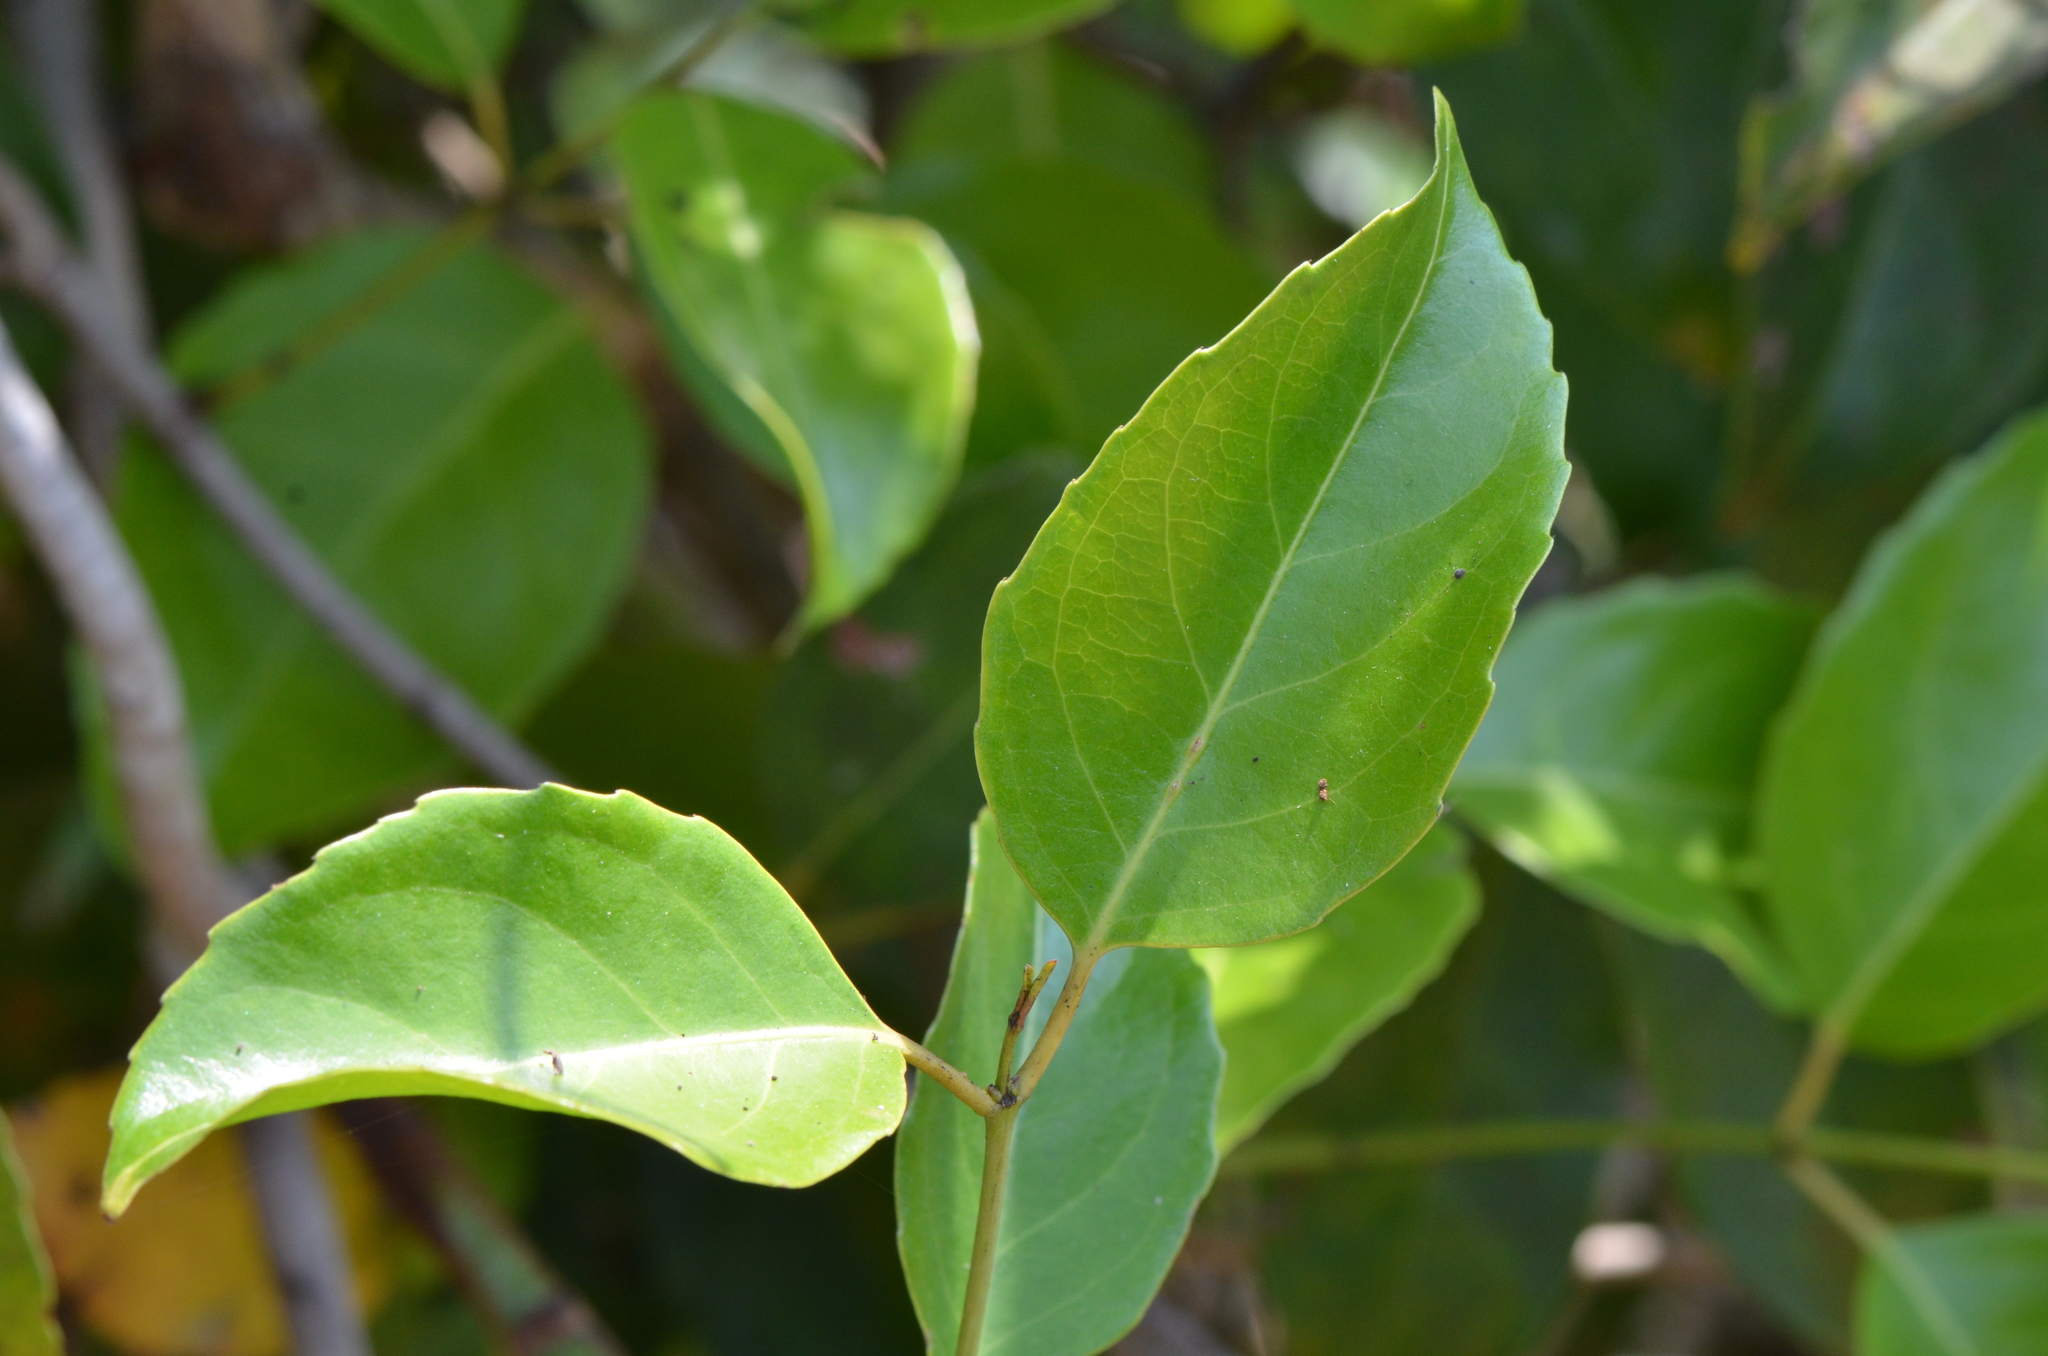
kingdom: Plantae
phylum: Tracheophyta
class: Magnoliopsida
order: Celastrales
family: Celastraceae
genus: Pristimera
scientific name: Pristimera arnottiana
